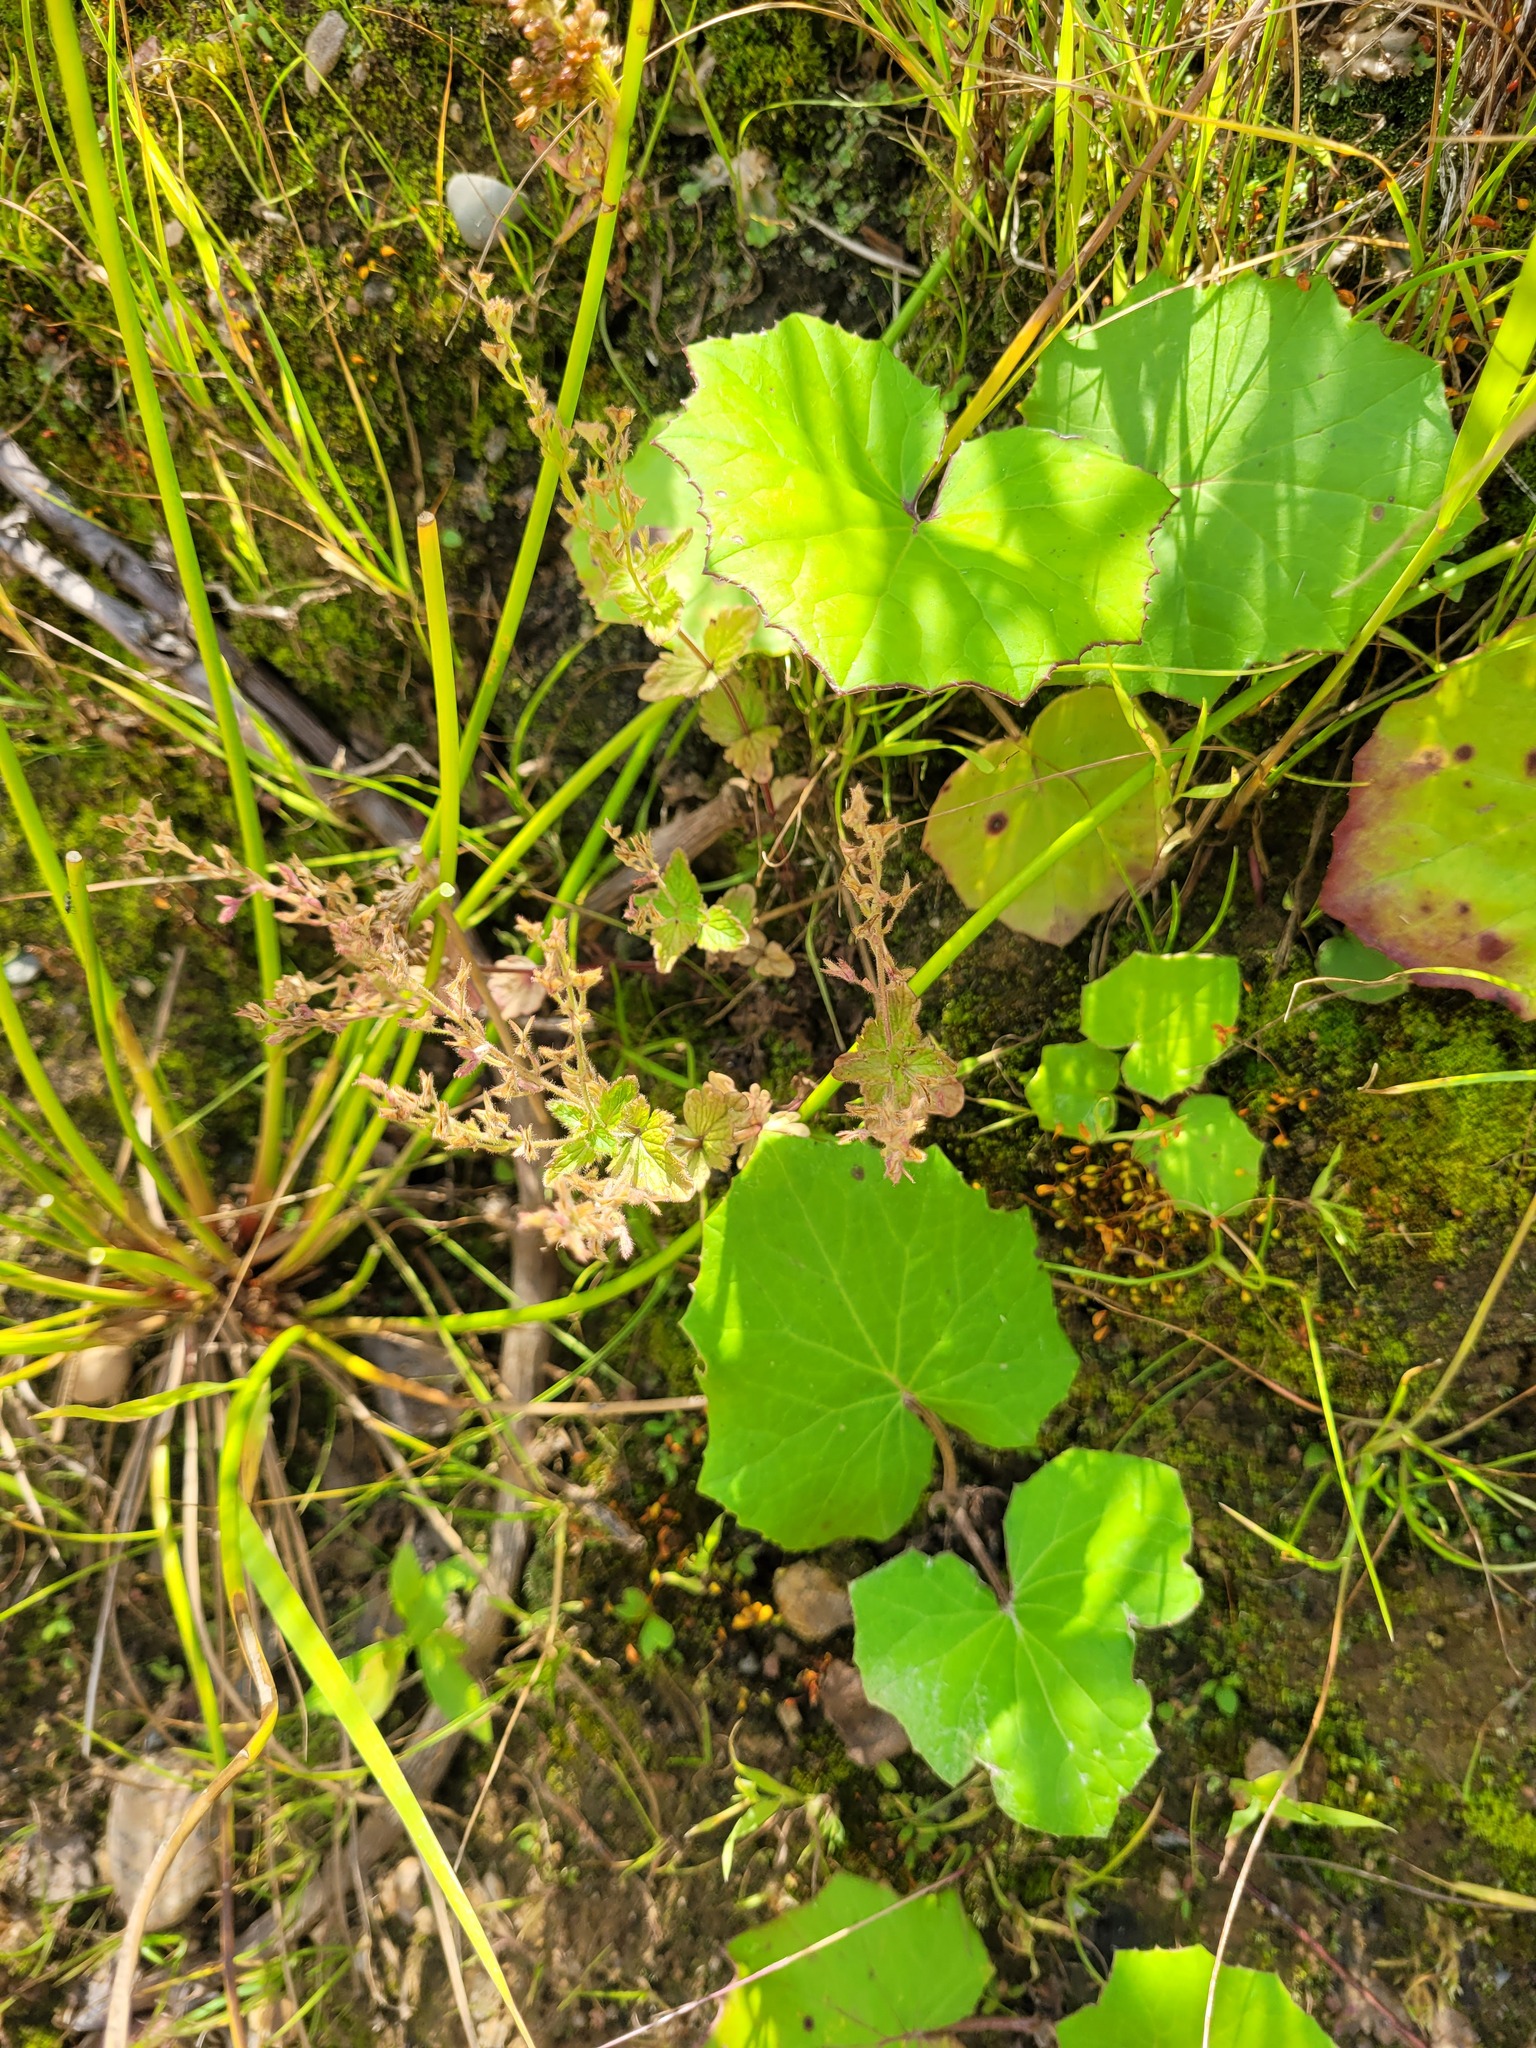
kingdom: Plantae
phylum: Tracheophyta
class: Magnoliopsida
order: Lamiales
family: Plantaginaceae
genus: Veronica
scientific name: Veronica chamaedrys
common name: Germander speedwell
